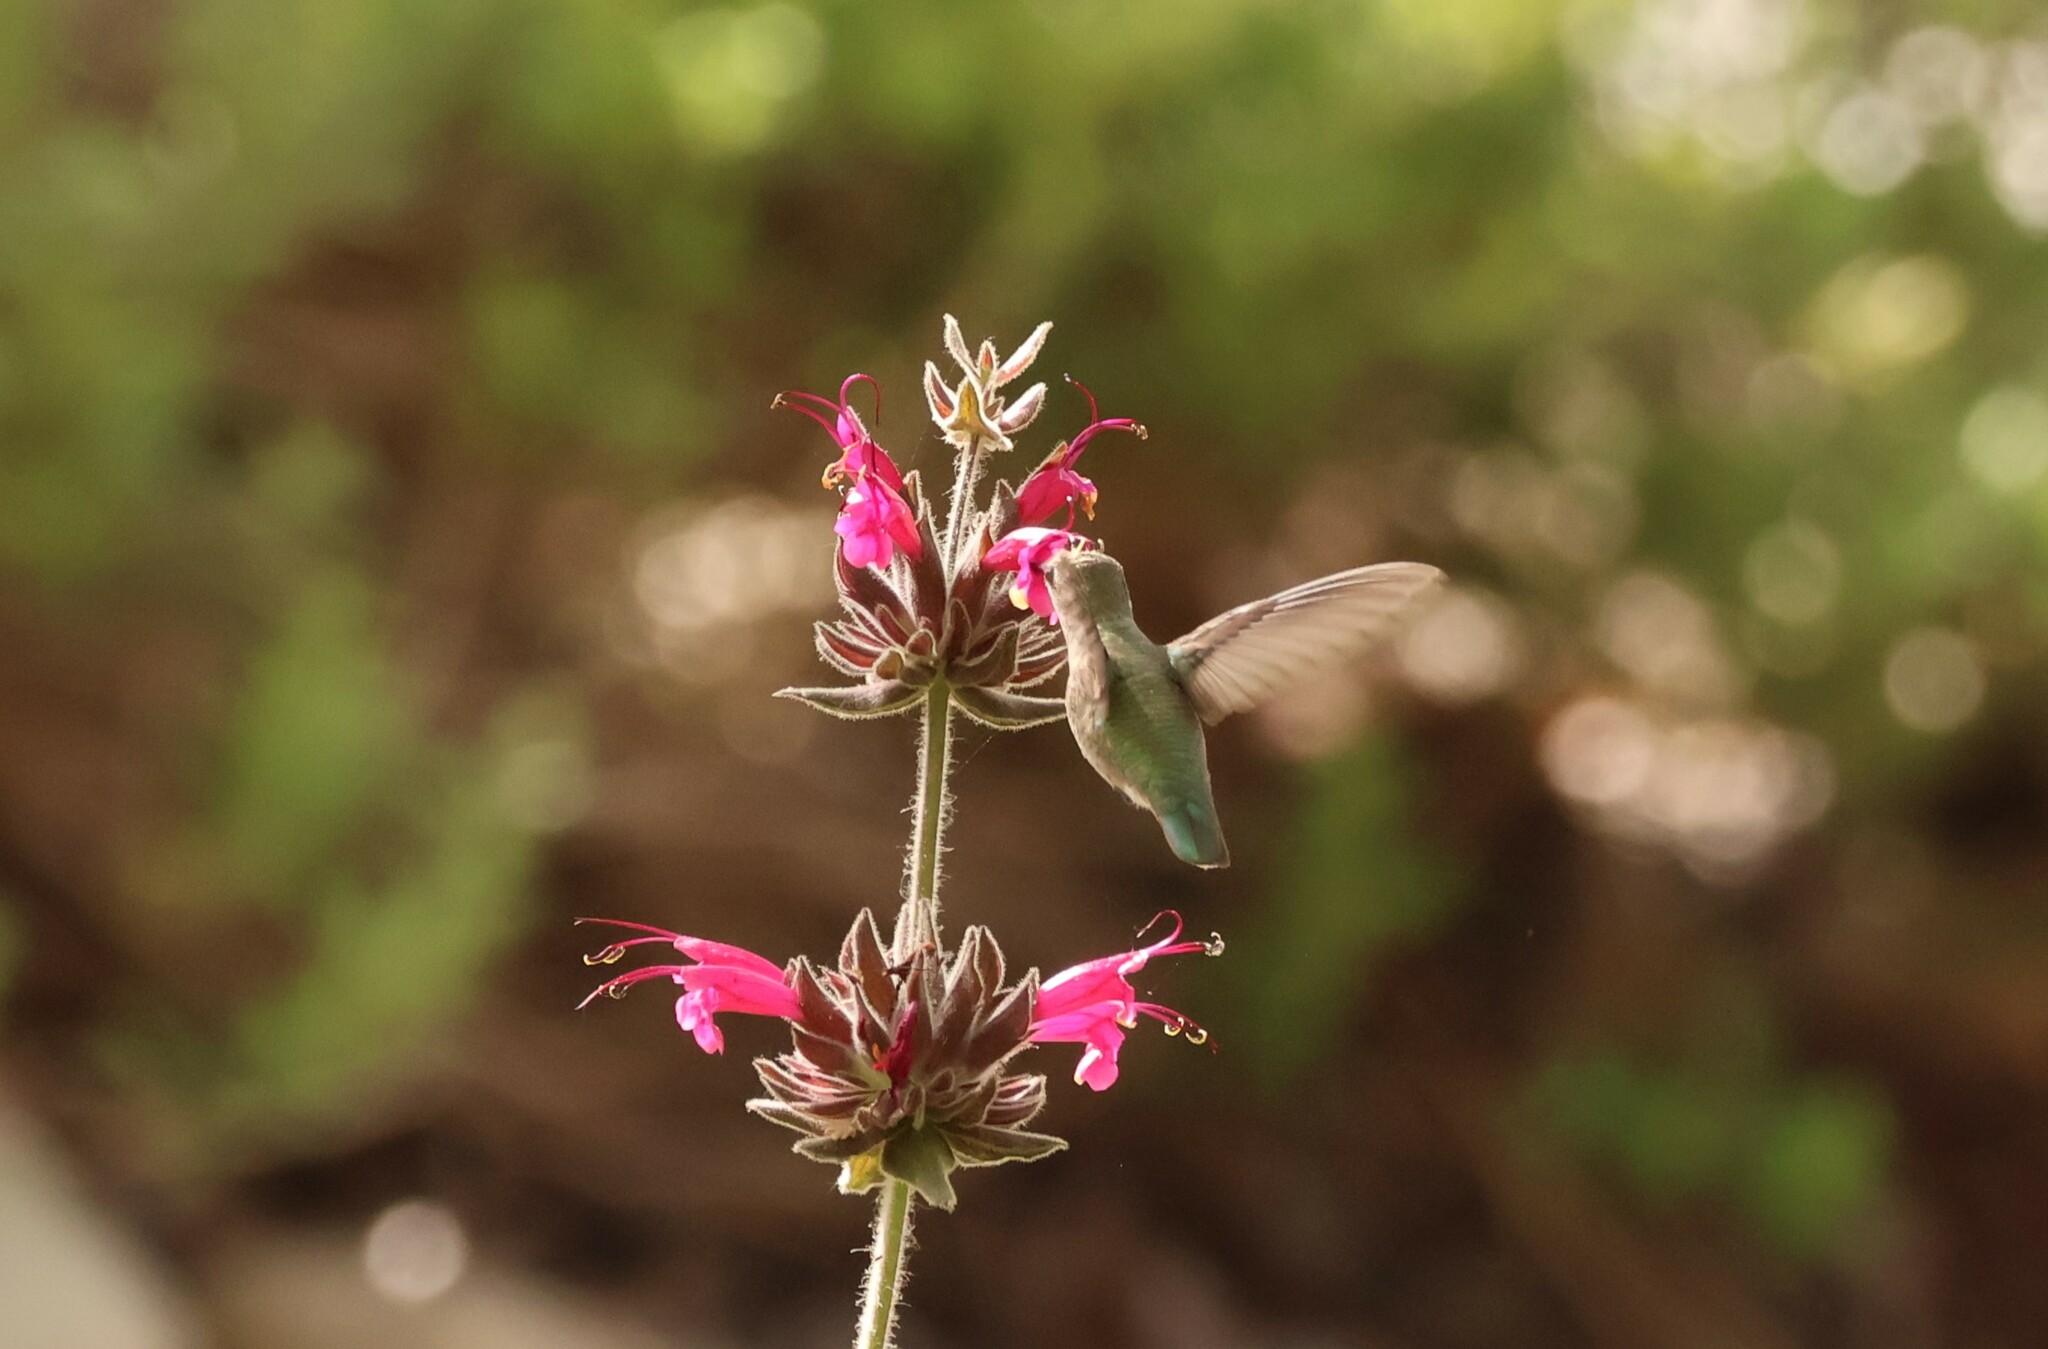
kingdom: Animalia
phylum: Chordata
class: Aves
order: Apodiformes
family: Trochilidae
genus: Calypte
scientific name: Calypte anna
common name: Anna's hummingbird
